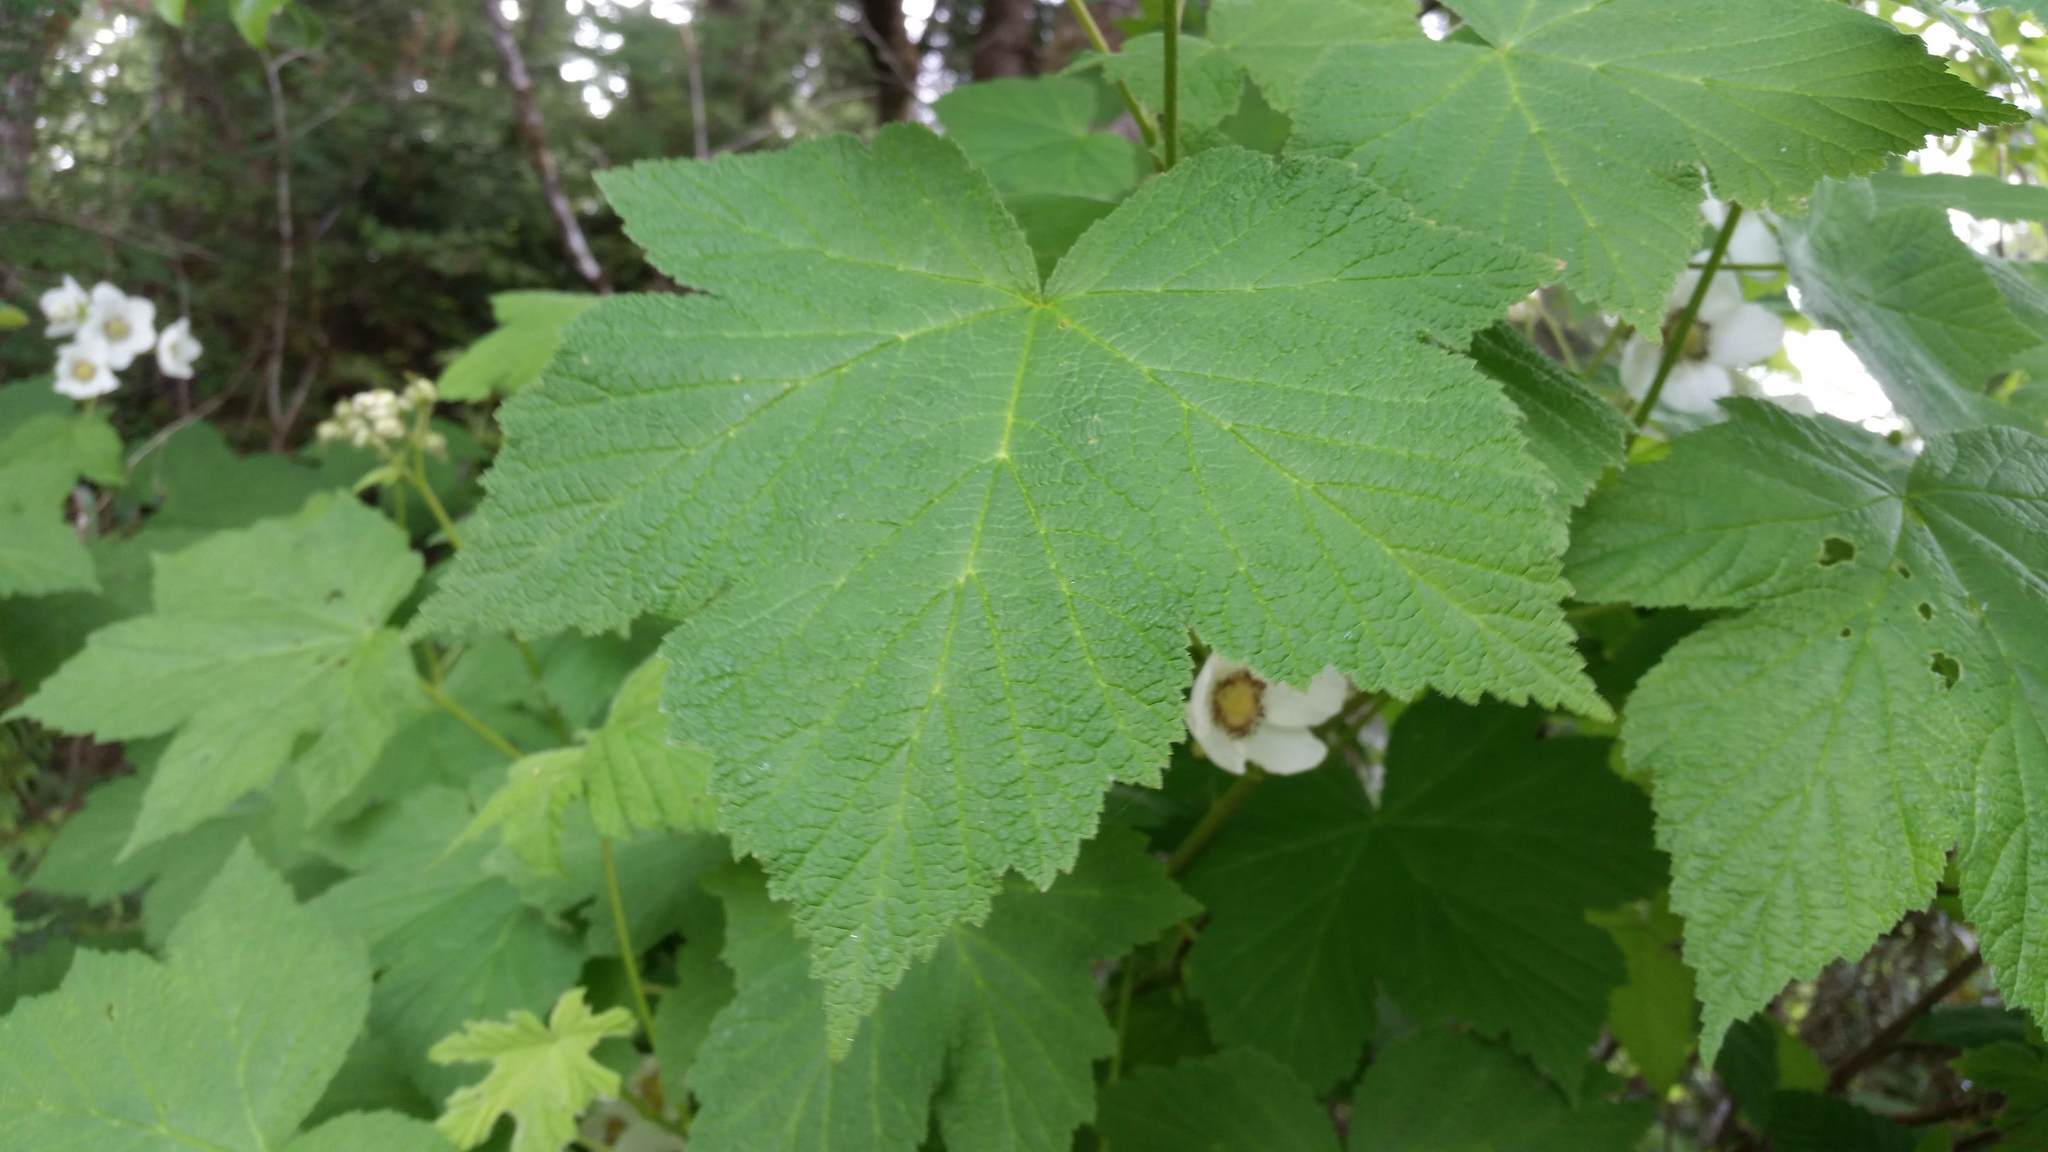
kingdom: Plantae
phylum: Tracheophyta
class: Magnoliopsida
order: Rosales
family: Rosaceae
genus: Rubus
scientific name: Rubus parviflorus
